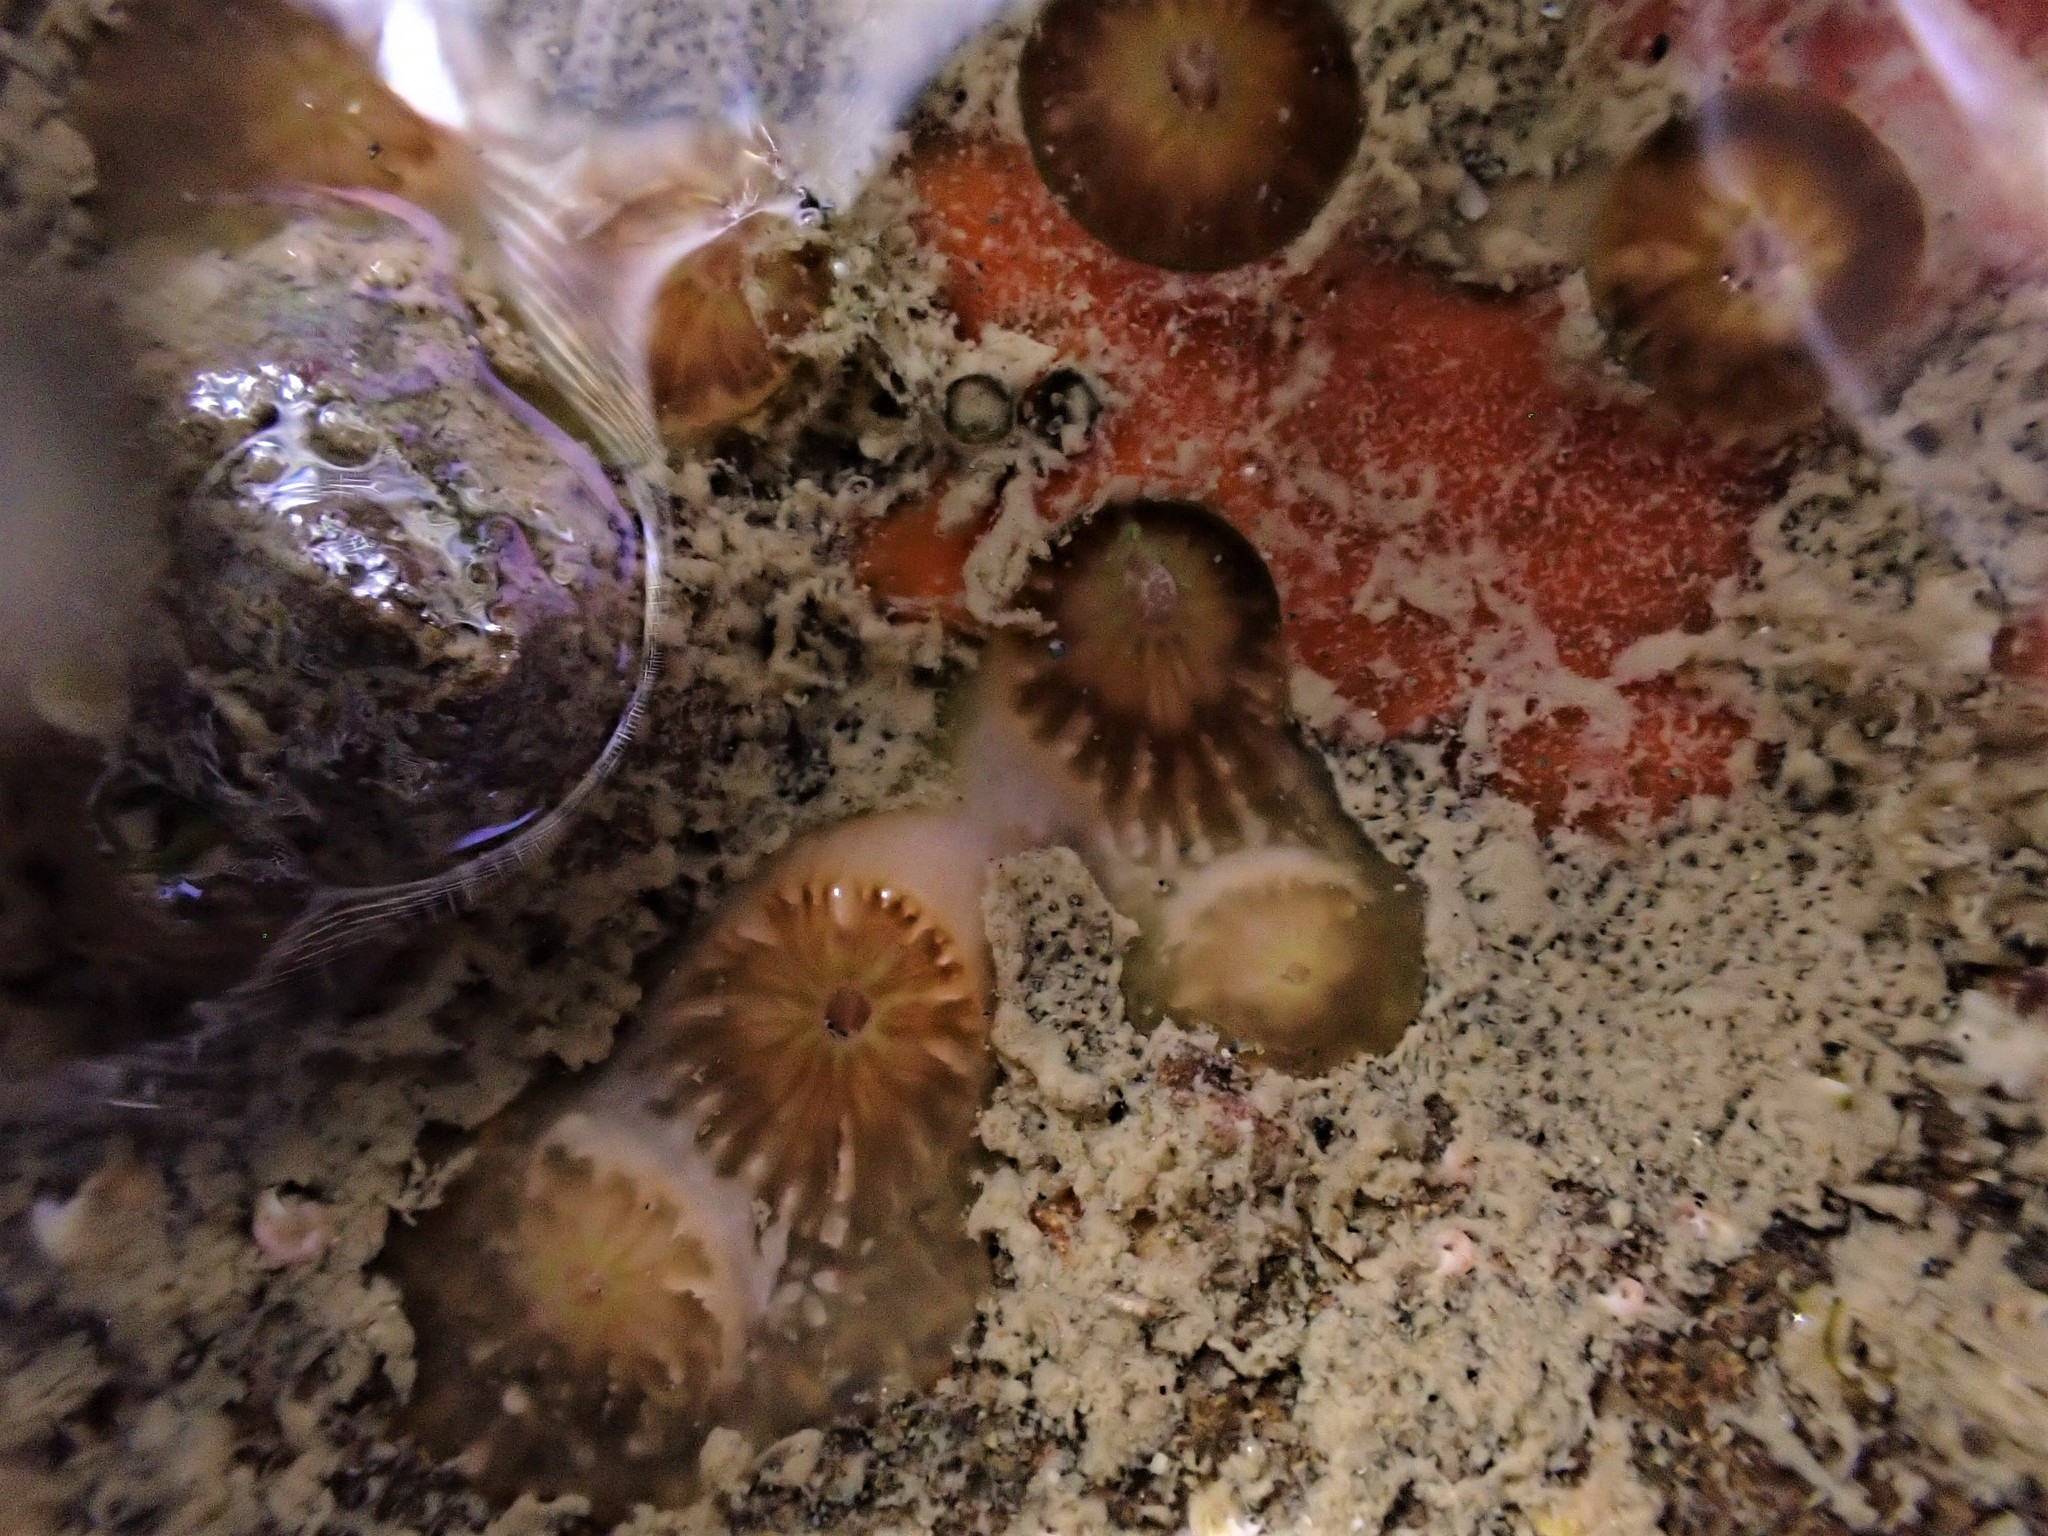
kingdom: Animalia
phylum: Cnidaria
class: Anthozoa
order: Scleractinia
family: Rhizangiidae
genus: Culicia
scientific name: Culicia rubeola
